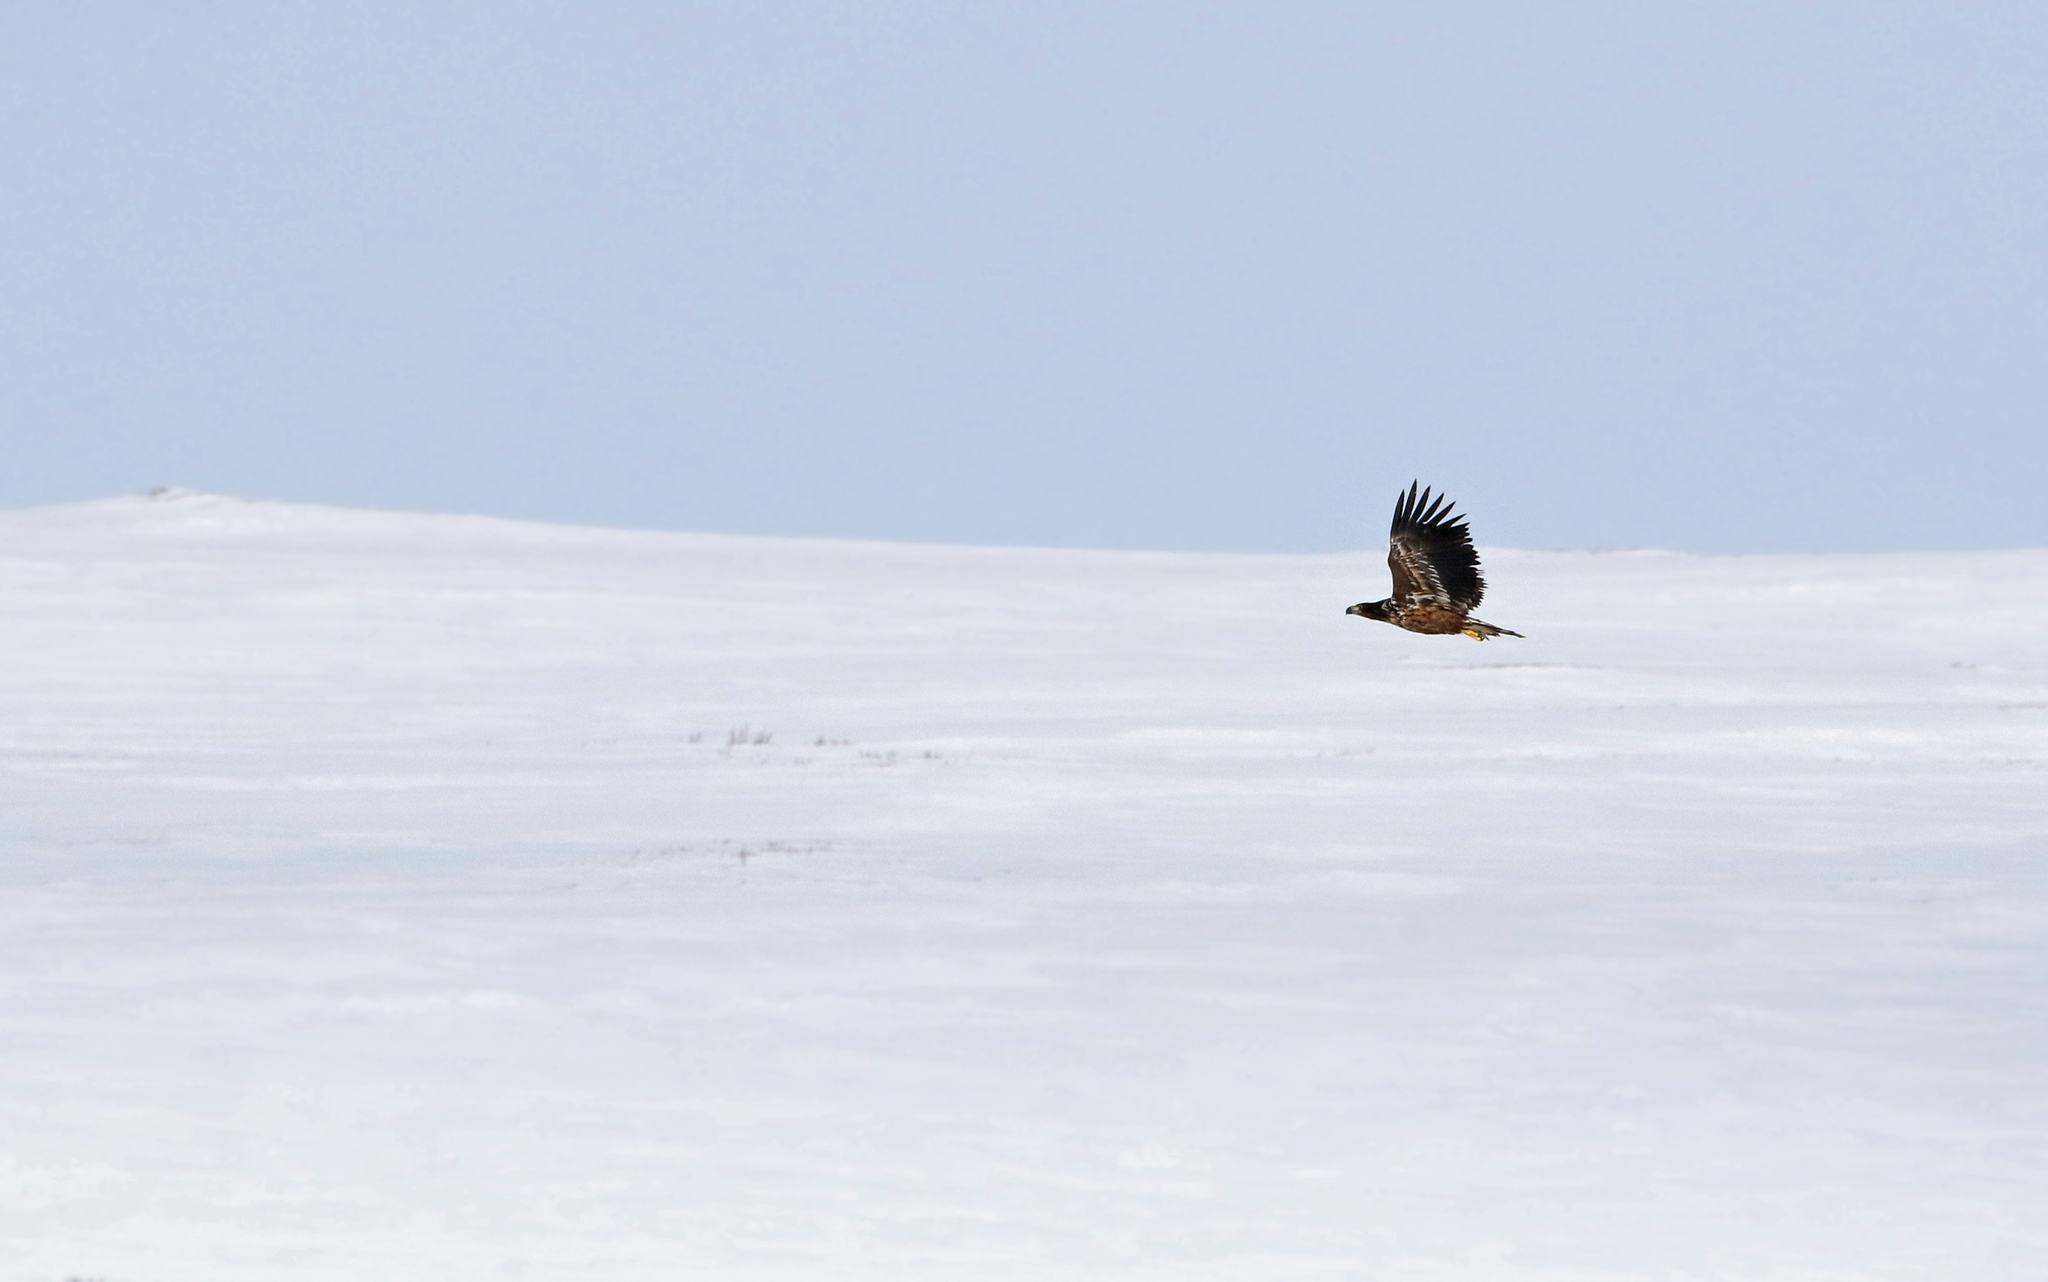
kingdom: Animalia
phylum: Chordata
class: Aves
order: Accipitriformes
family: Accipitridae
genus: Haliaeetus
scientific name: Haliaeetus albicilla
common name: White-tailed eagle
